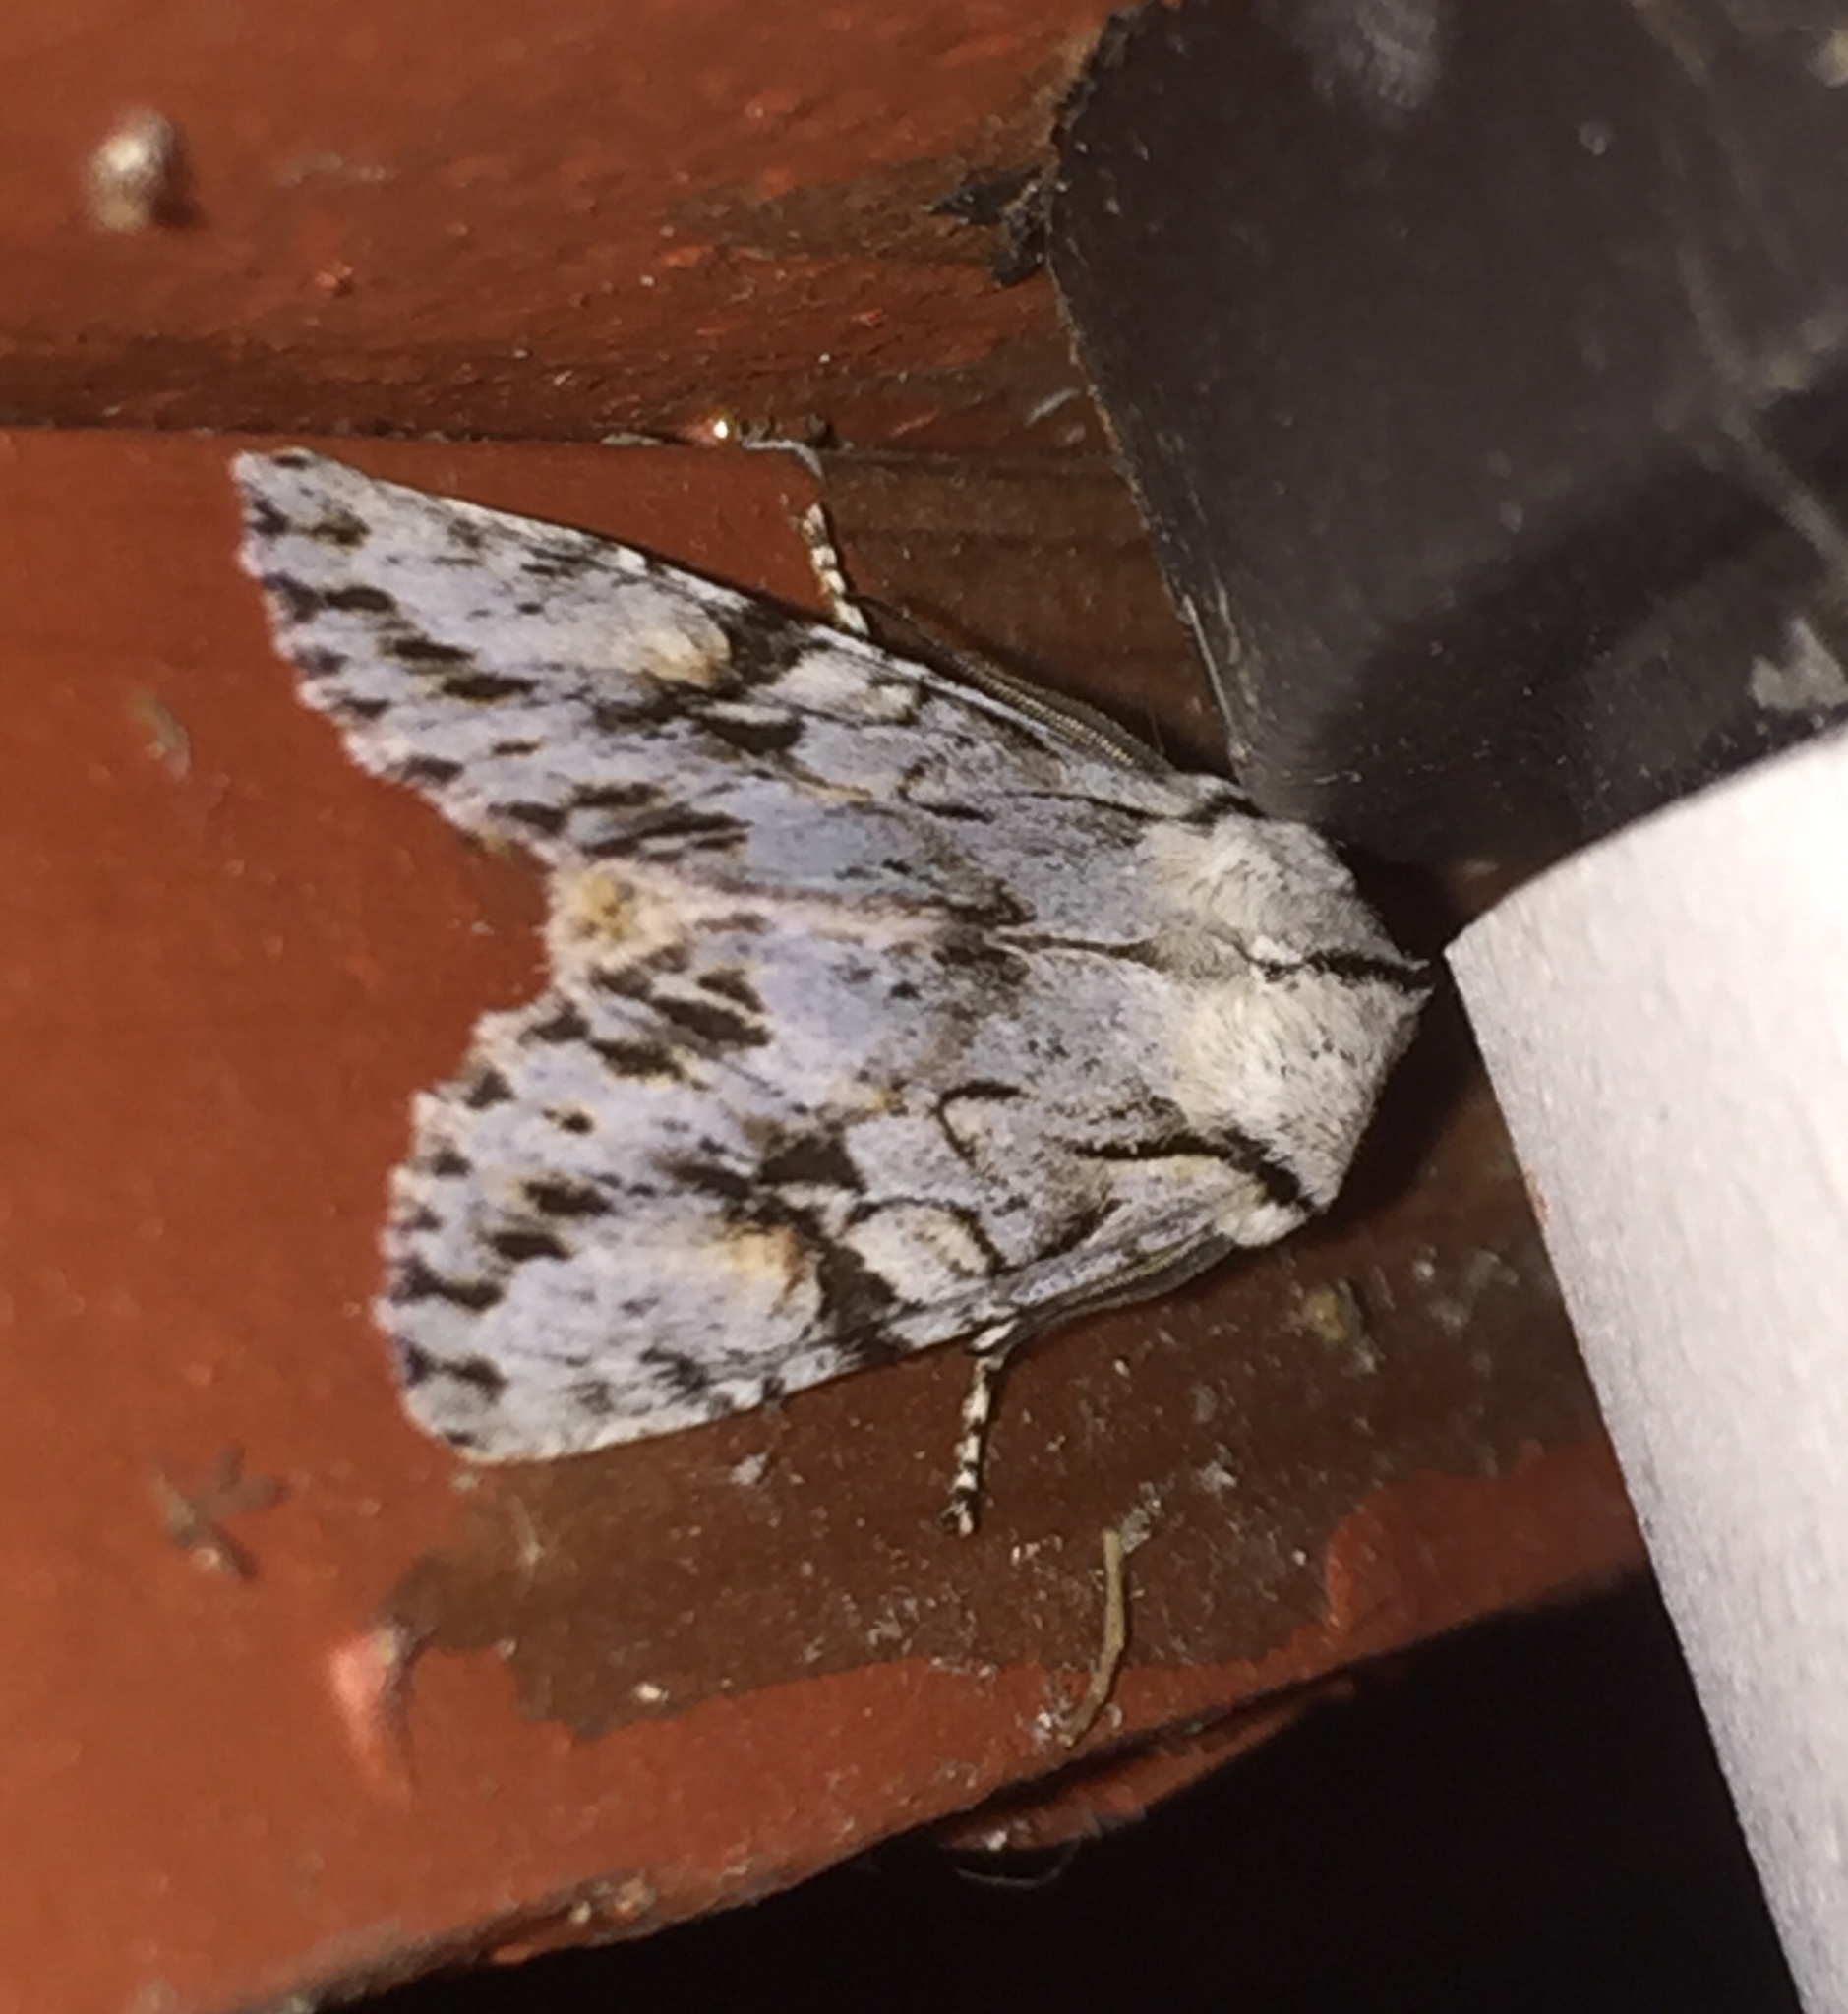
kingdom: Animalia
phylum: Arthropoda
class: Insecta
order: Lepidoptera
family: Noctuidae
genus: Egira
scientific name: Egira crucialis
